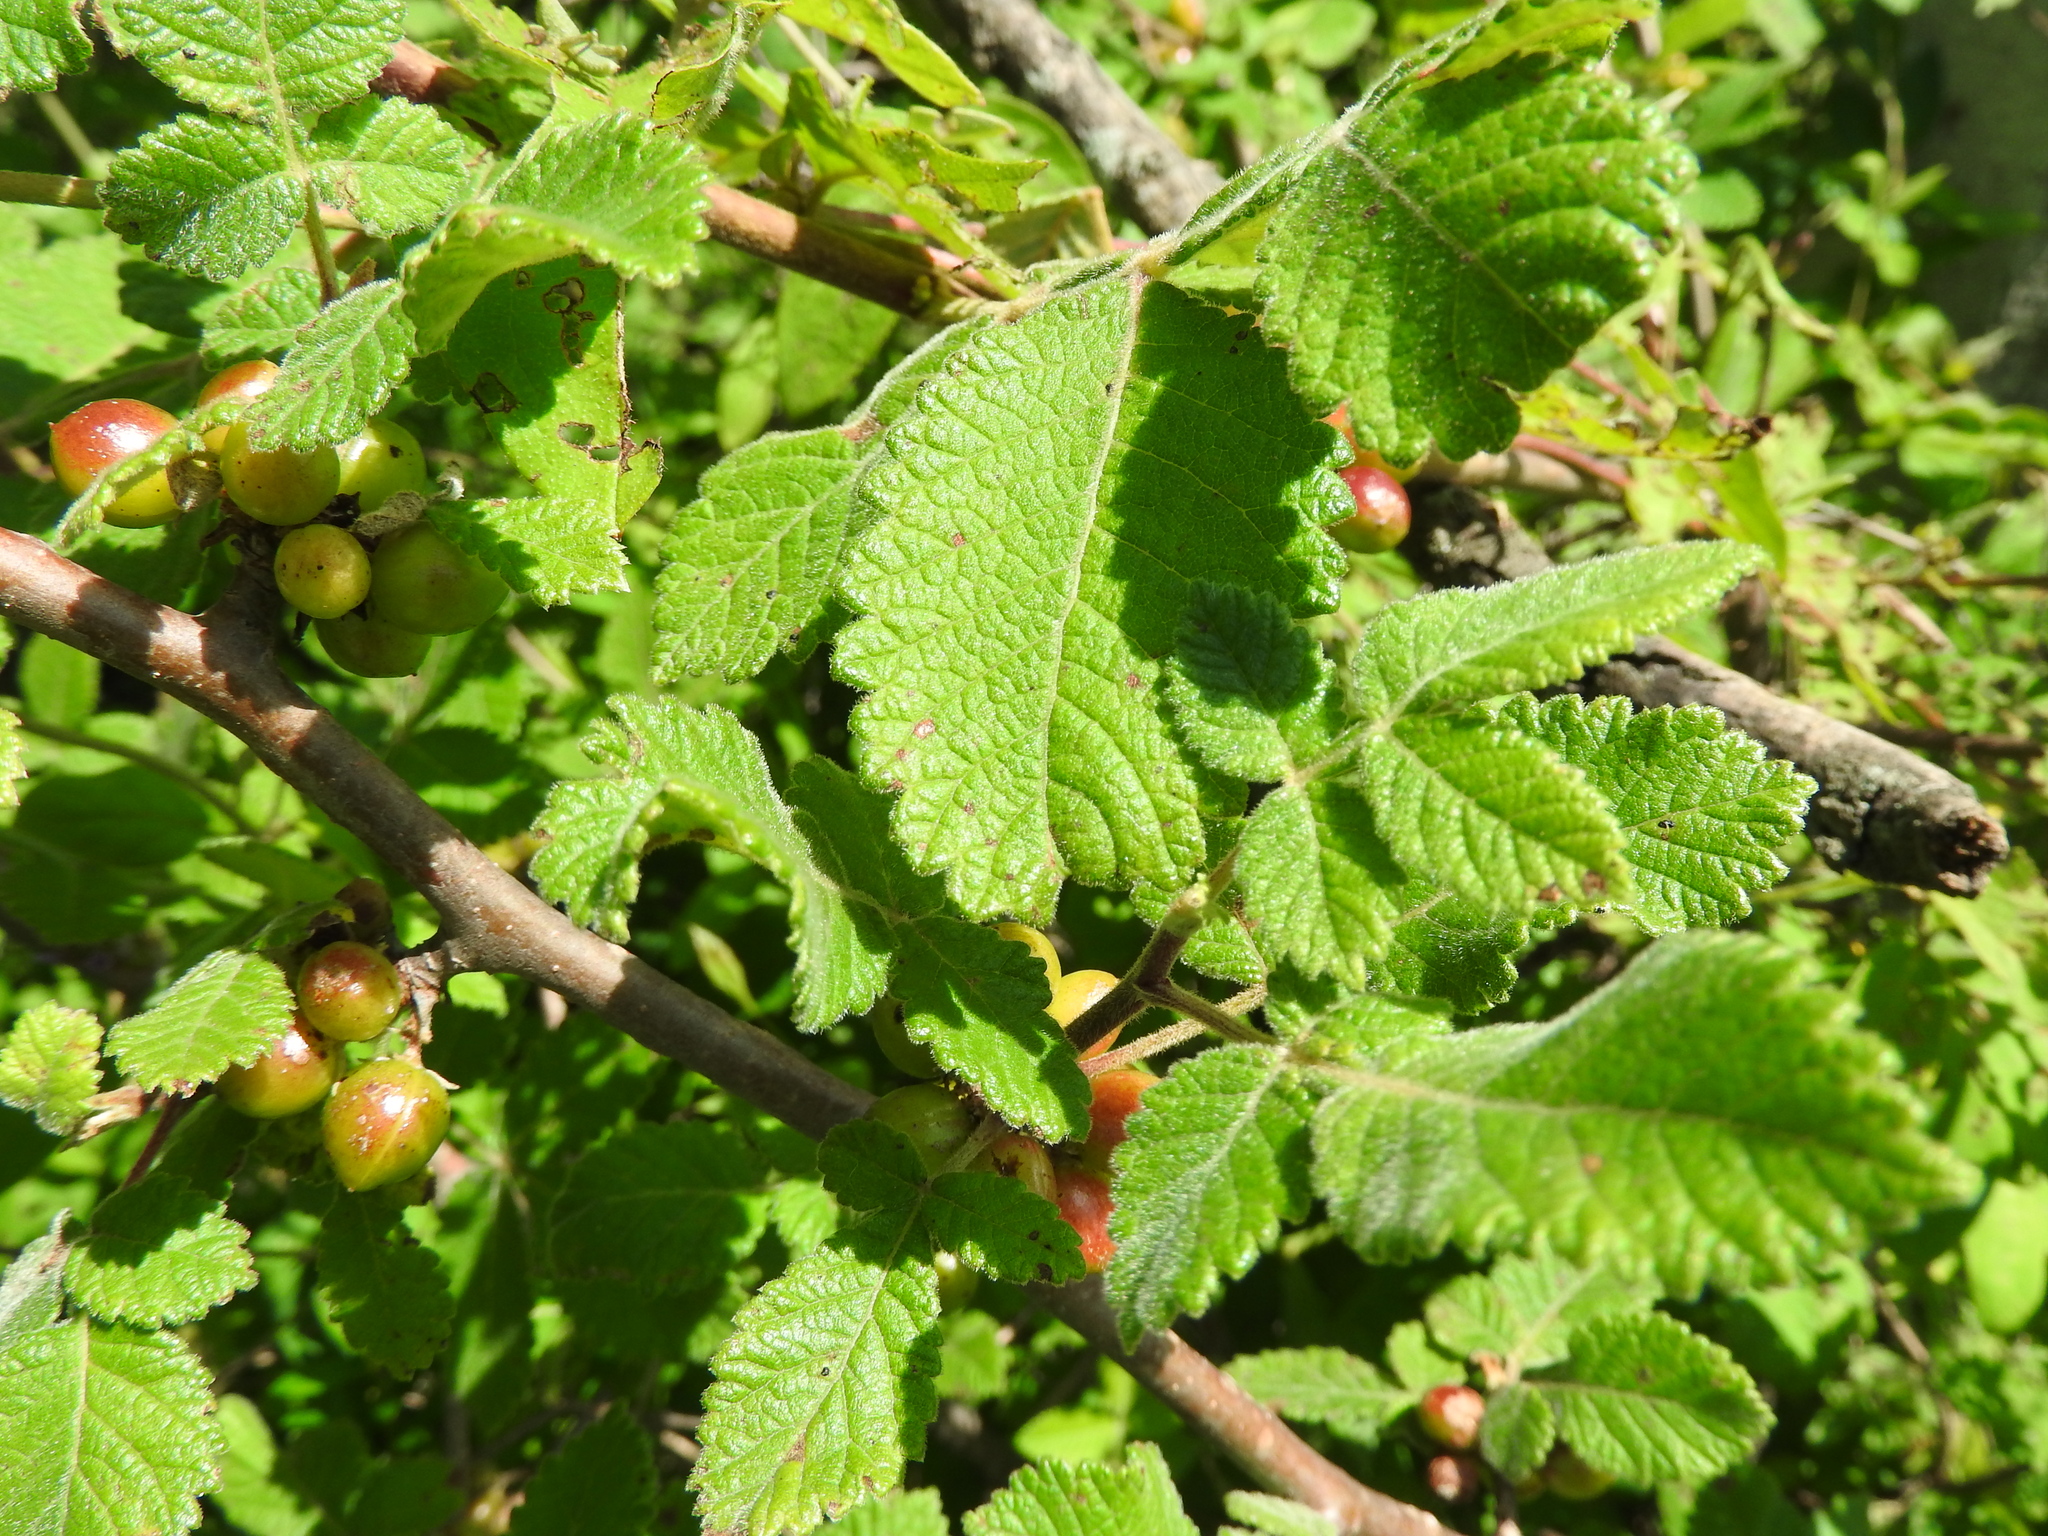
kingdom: Plantae
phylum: Tracheophyta
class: Magnoliopsida
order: Sapindales
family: Burseraceae
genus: Bursera
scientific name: Bursera palmeri
